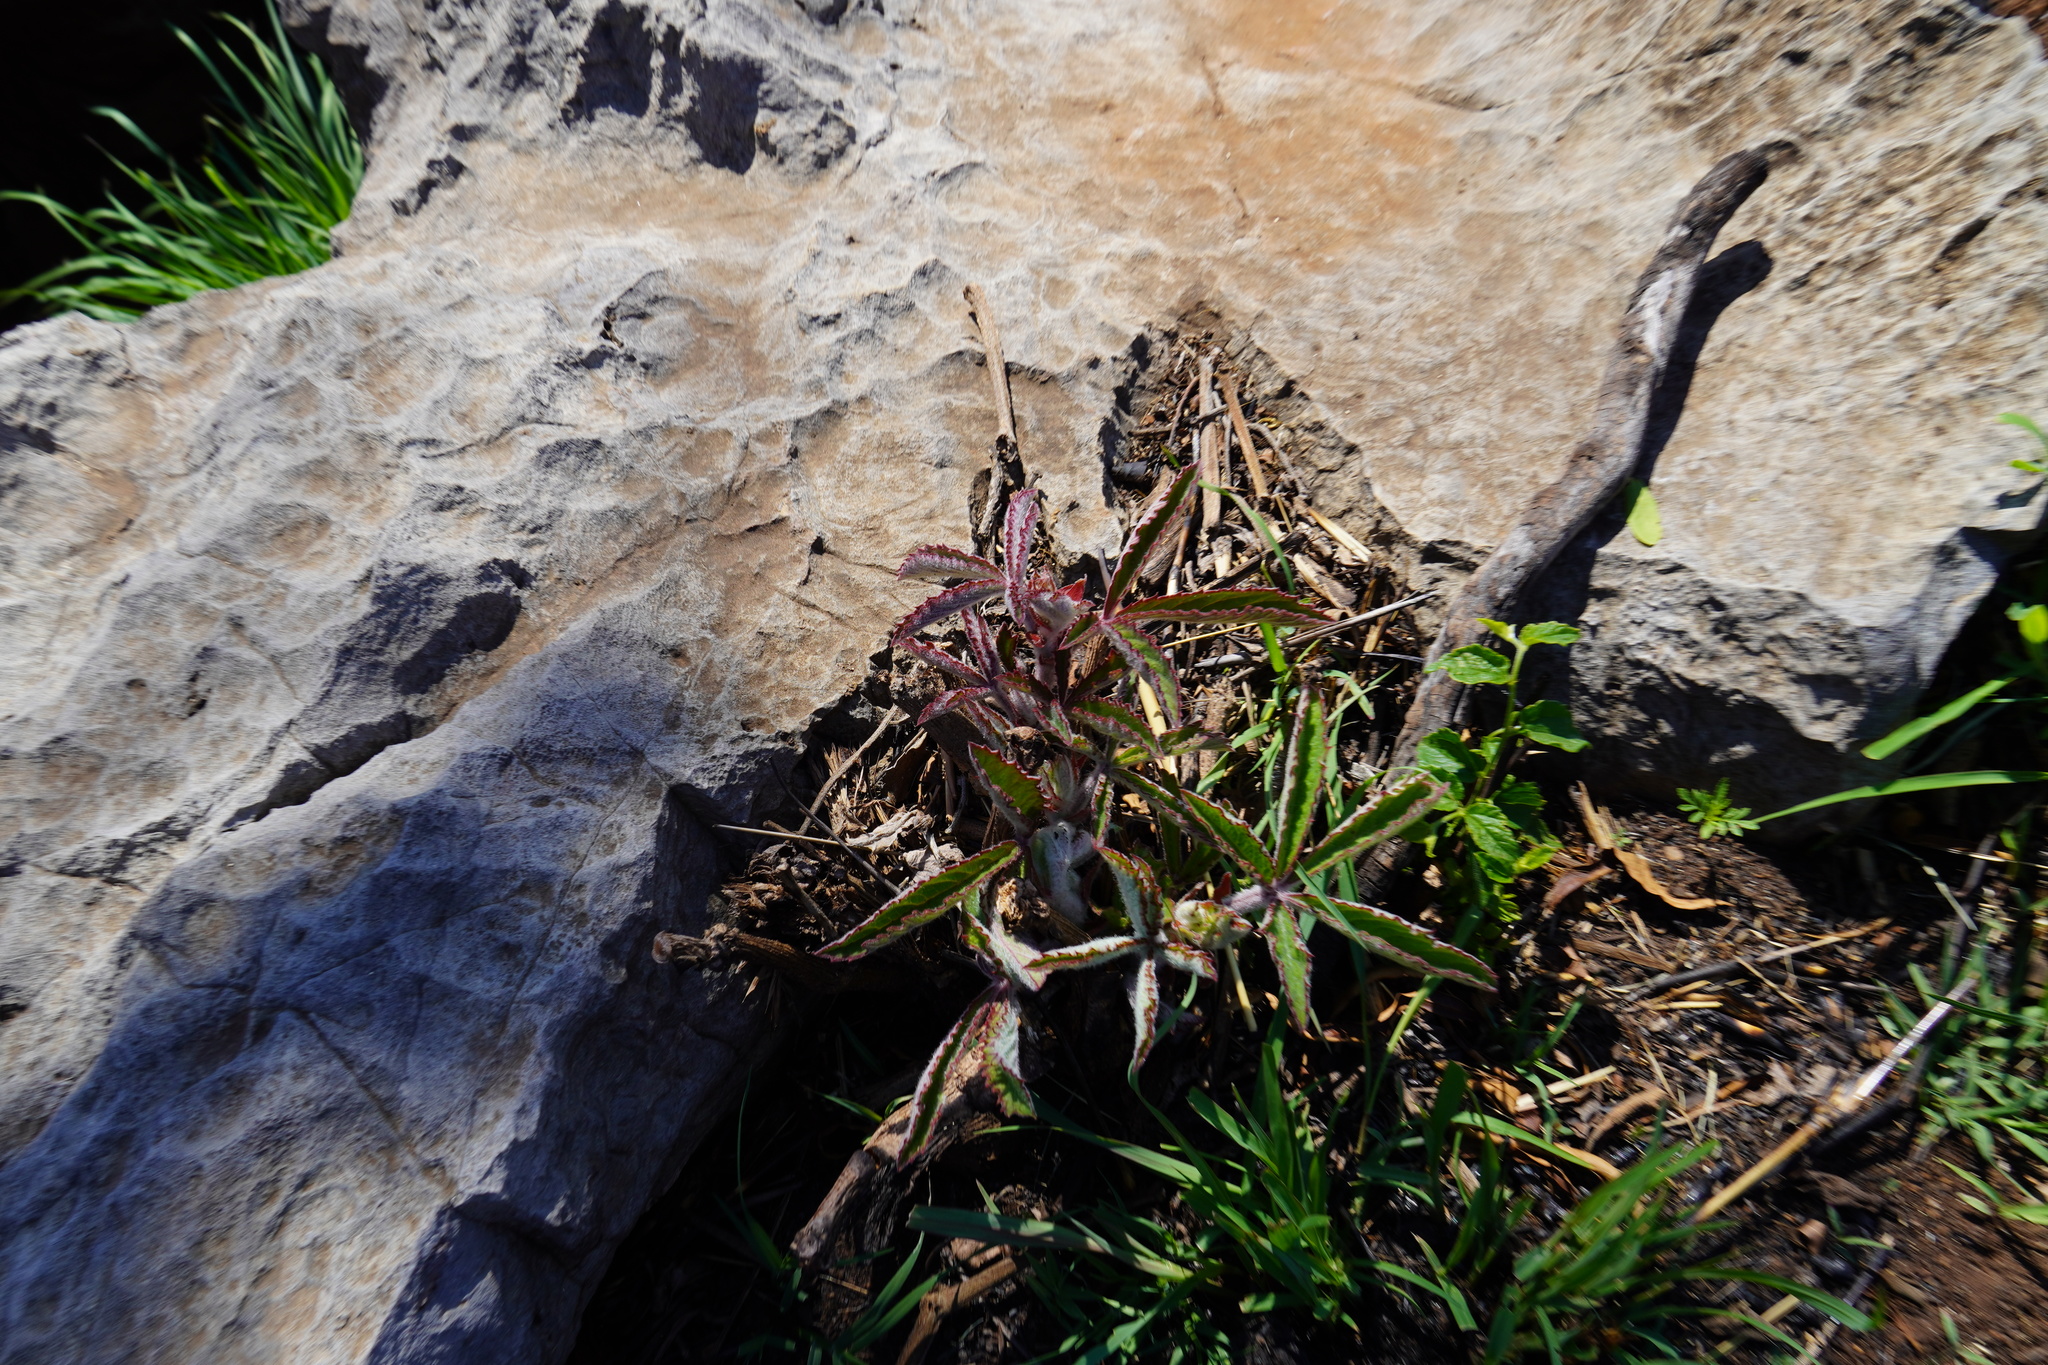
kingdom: Plantae
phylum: Tracheophyta
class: Magnoliopsida
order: Vitales
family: Vitaceae
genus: Cyphostemma
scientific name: Cyphostemma lanigerum
